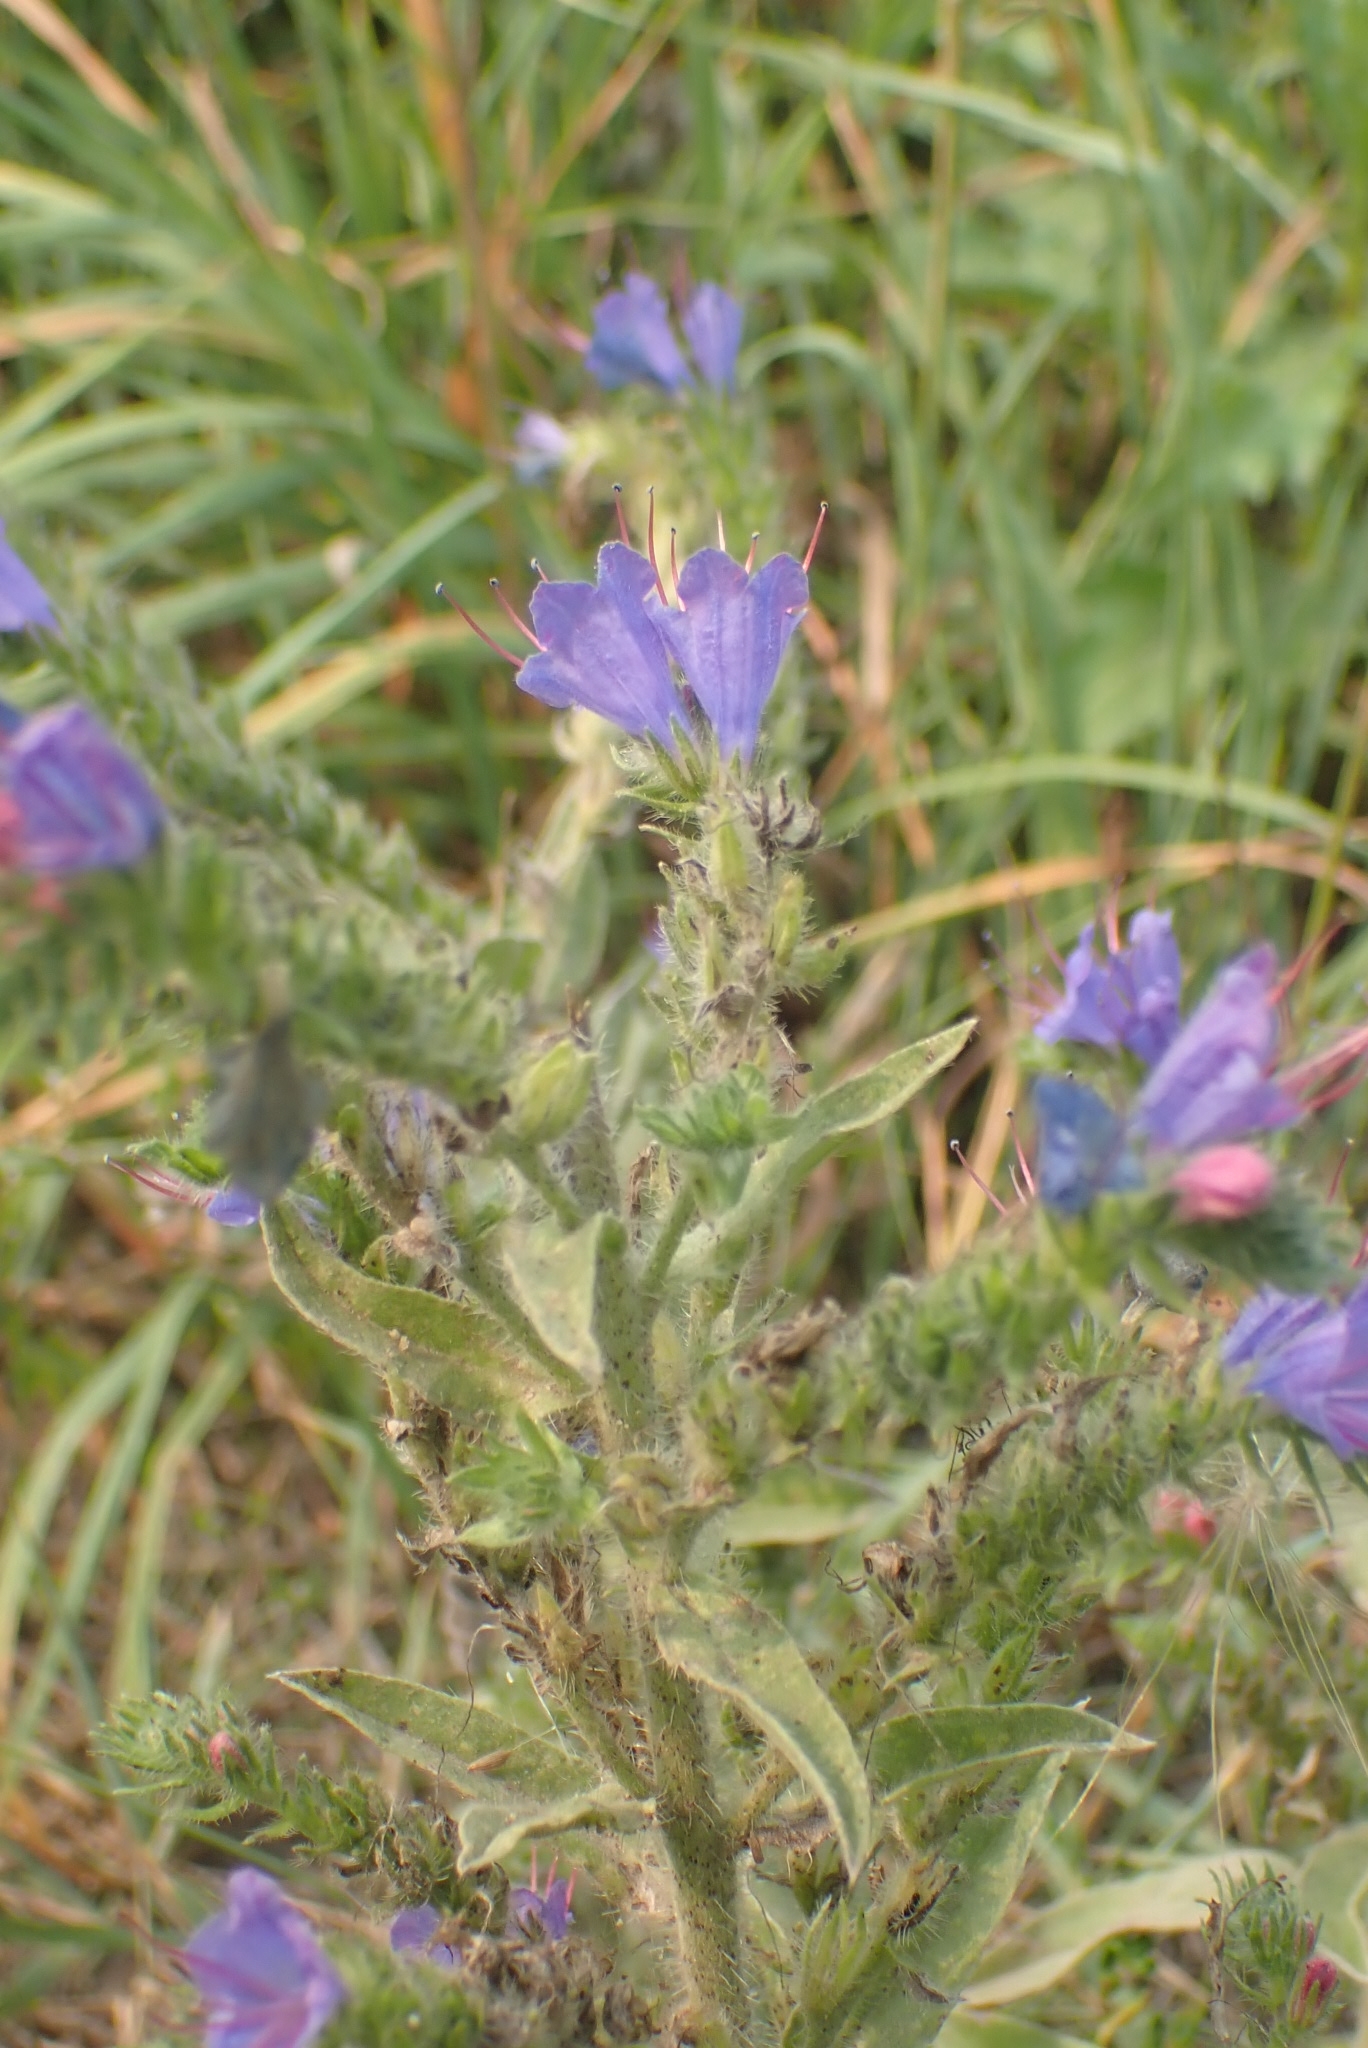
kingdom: Plantae
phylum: Tracheophyta
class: Magnoliopsida
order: Boraginales
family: Boraginaceae
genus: Echium
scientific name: Echium vulgare
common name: Common viper's bugloss
